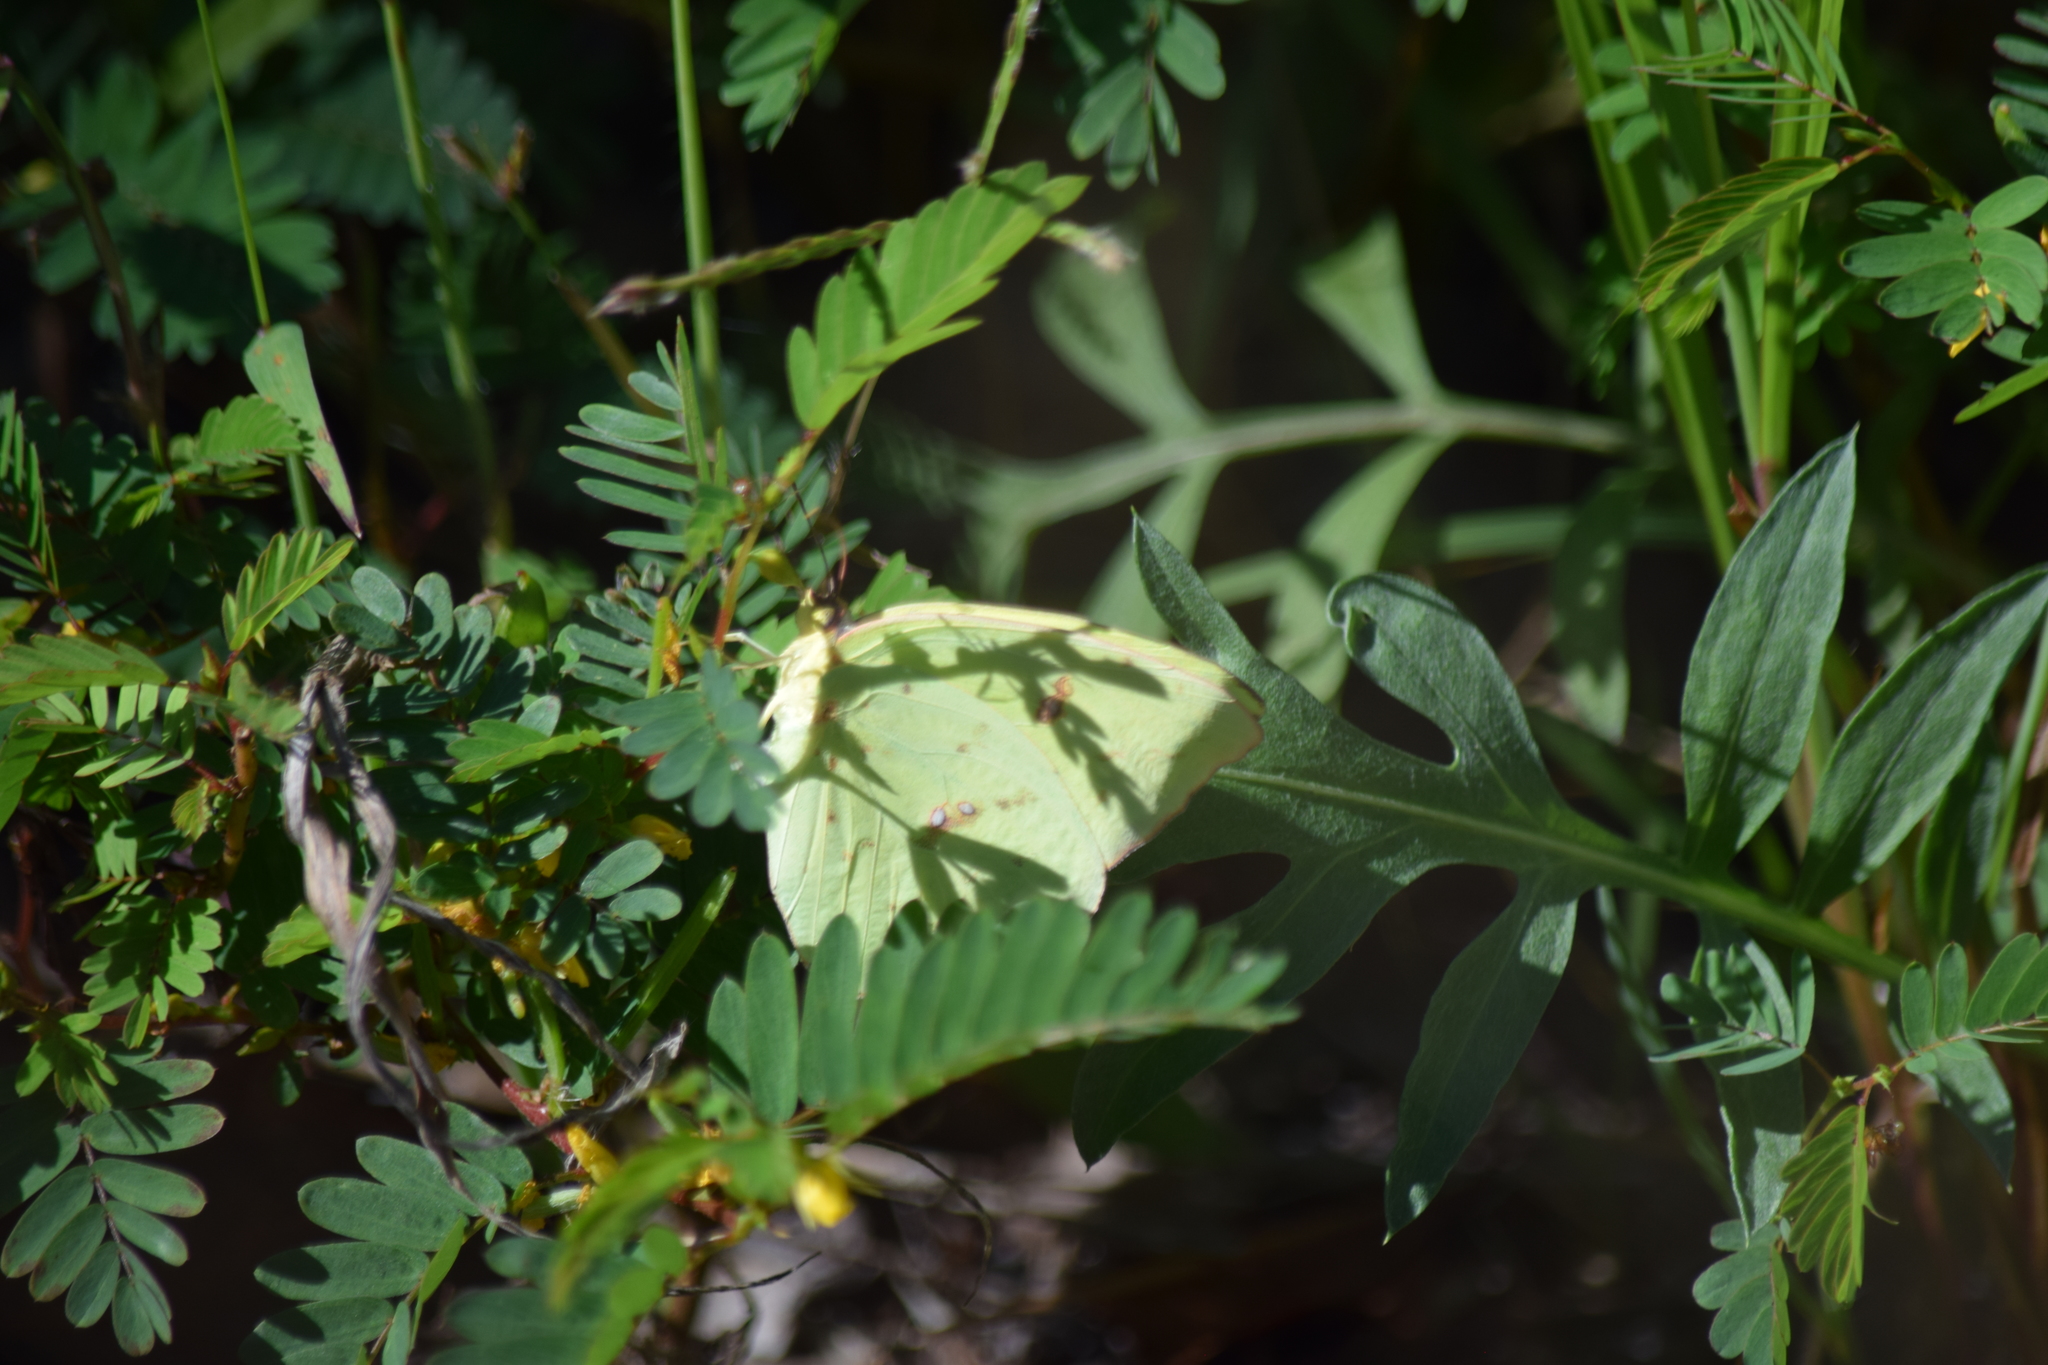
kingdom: Animalia
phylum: Arthropoda
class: Insecta
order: Lepidoptera
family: Pieridae
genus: Phoebis
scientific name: Phoebis sennae
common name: Cloudless sulphur
